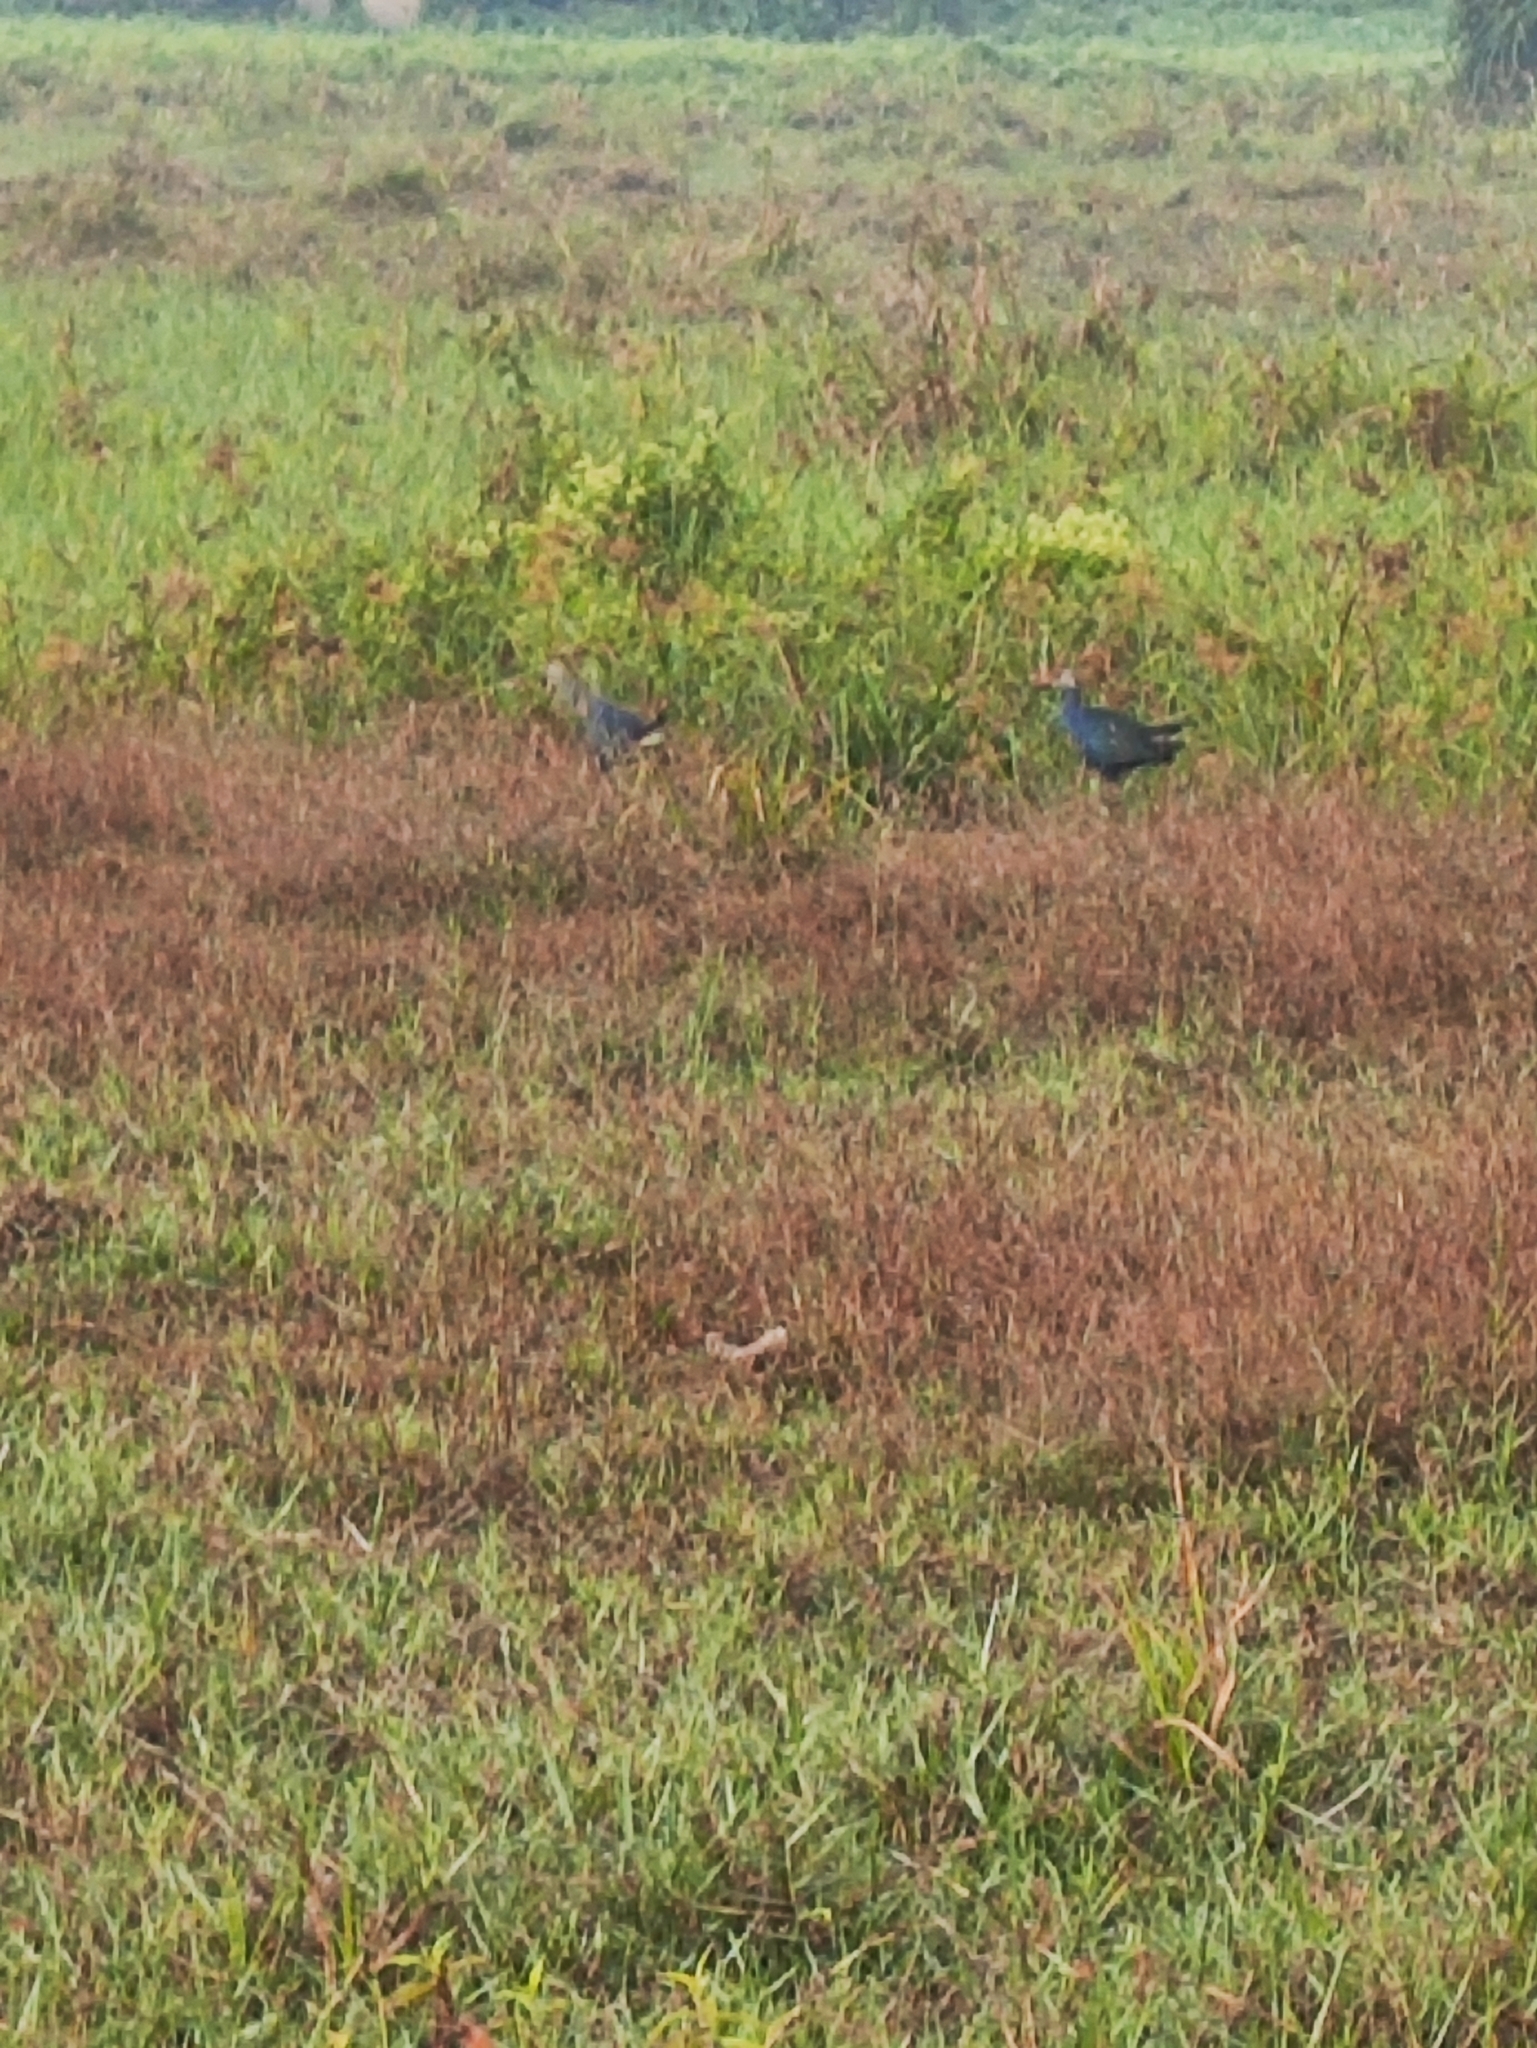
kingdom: Animalia
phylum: Chordata
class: Aves
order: Gruiformes
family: Rallidae
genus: Porphyrio
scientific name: Porphyrio porphyrio
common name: Purple swamphen
